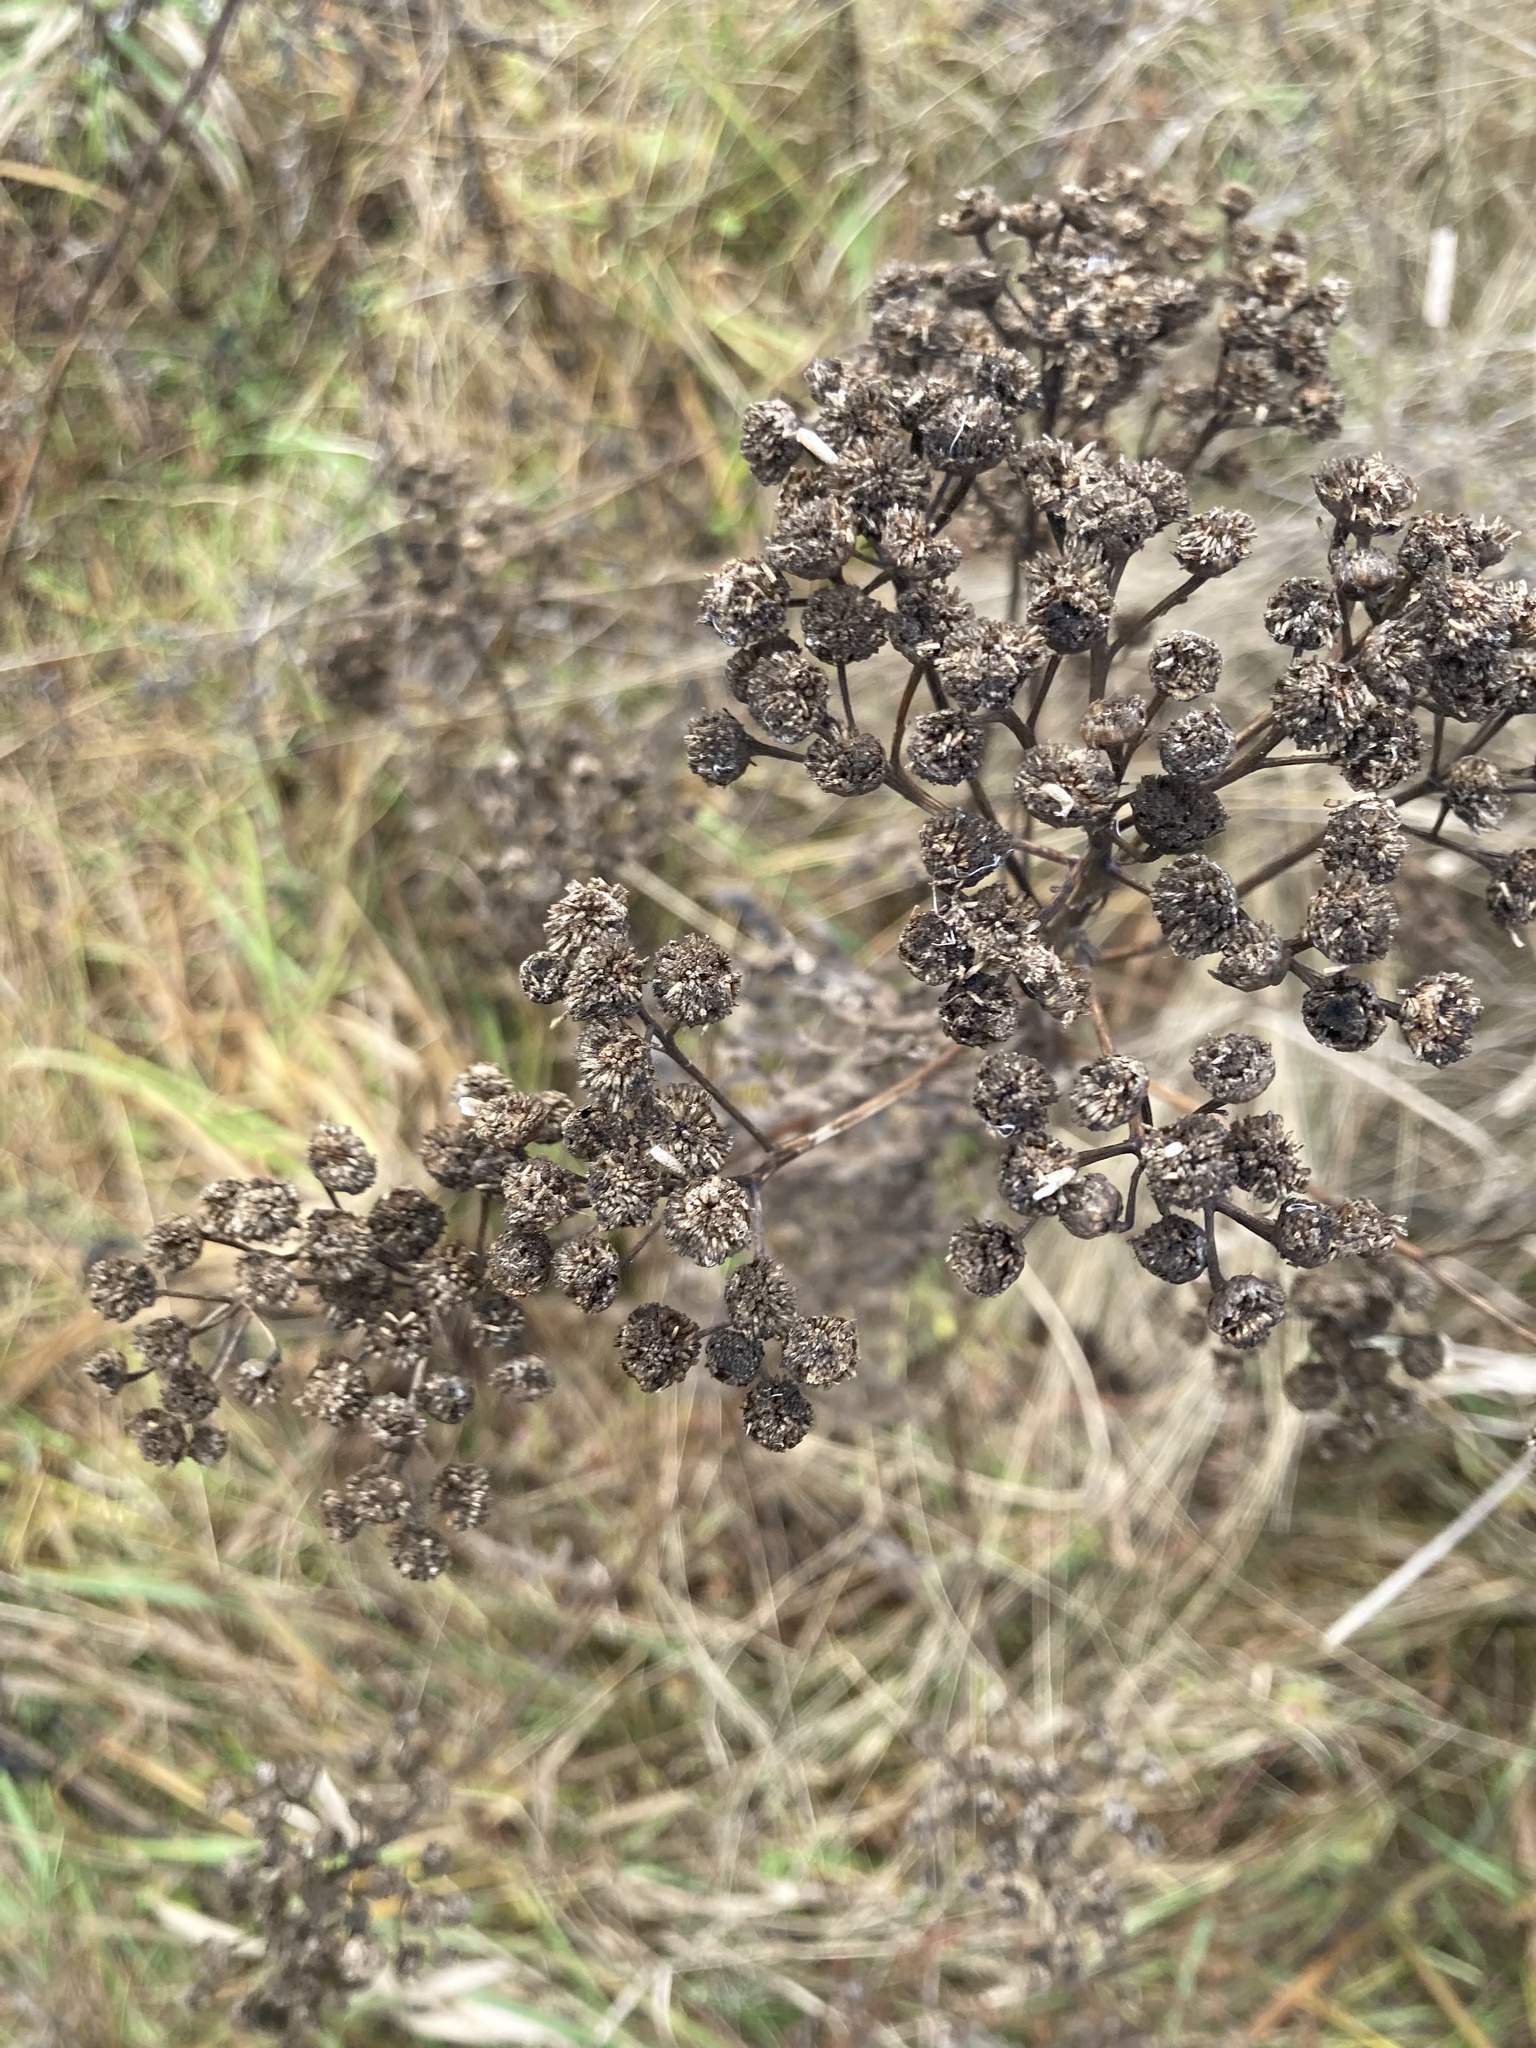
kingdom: Plantae
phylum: Tracheophyta
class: Magnoliopsida
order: Asterales
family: Asteraceae
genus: Tanacetum
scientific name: Tanacetum vulgare
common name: Common tansy
